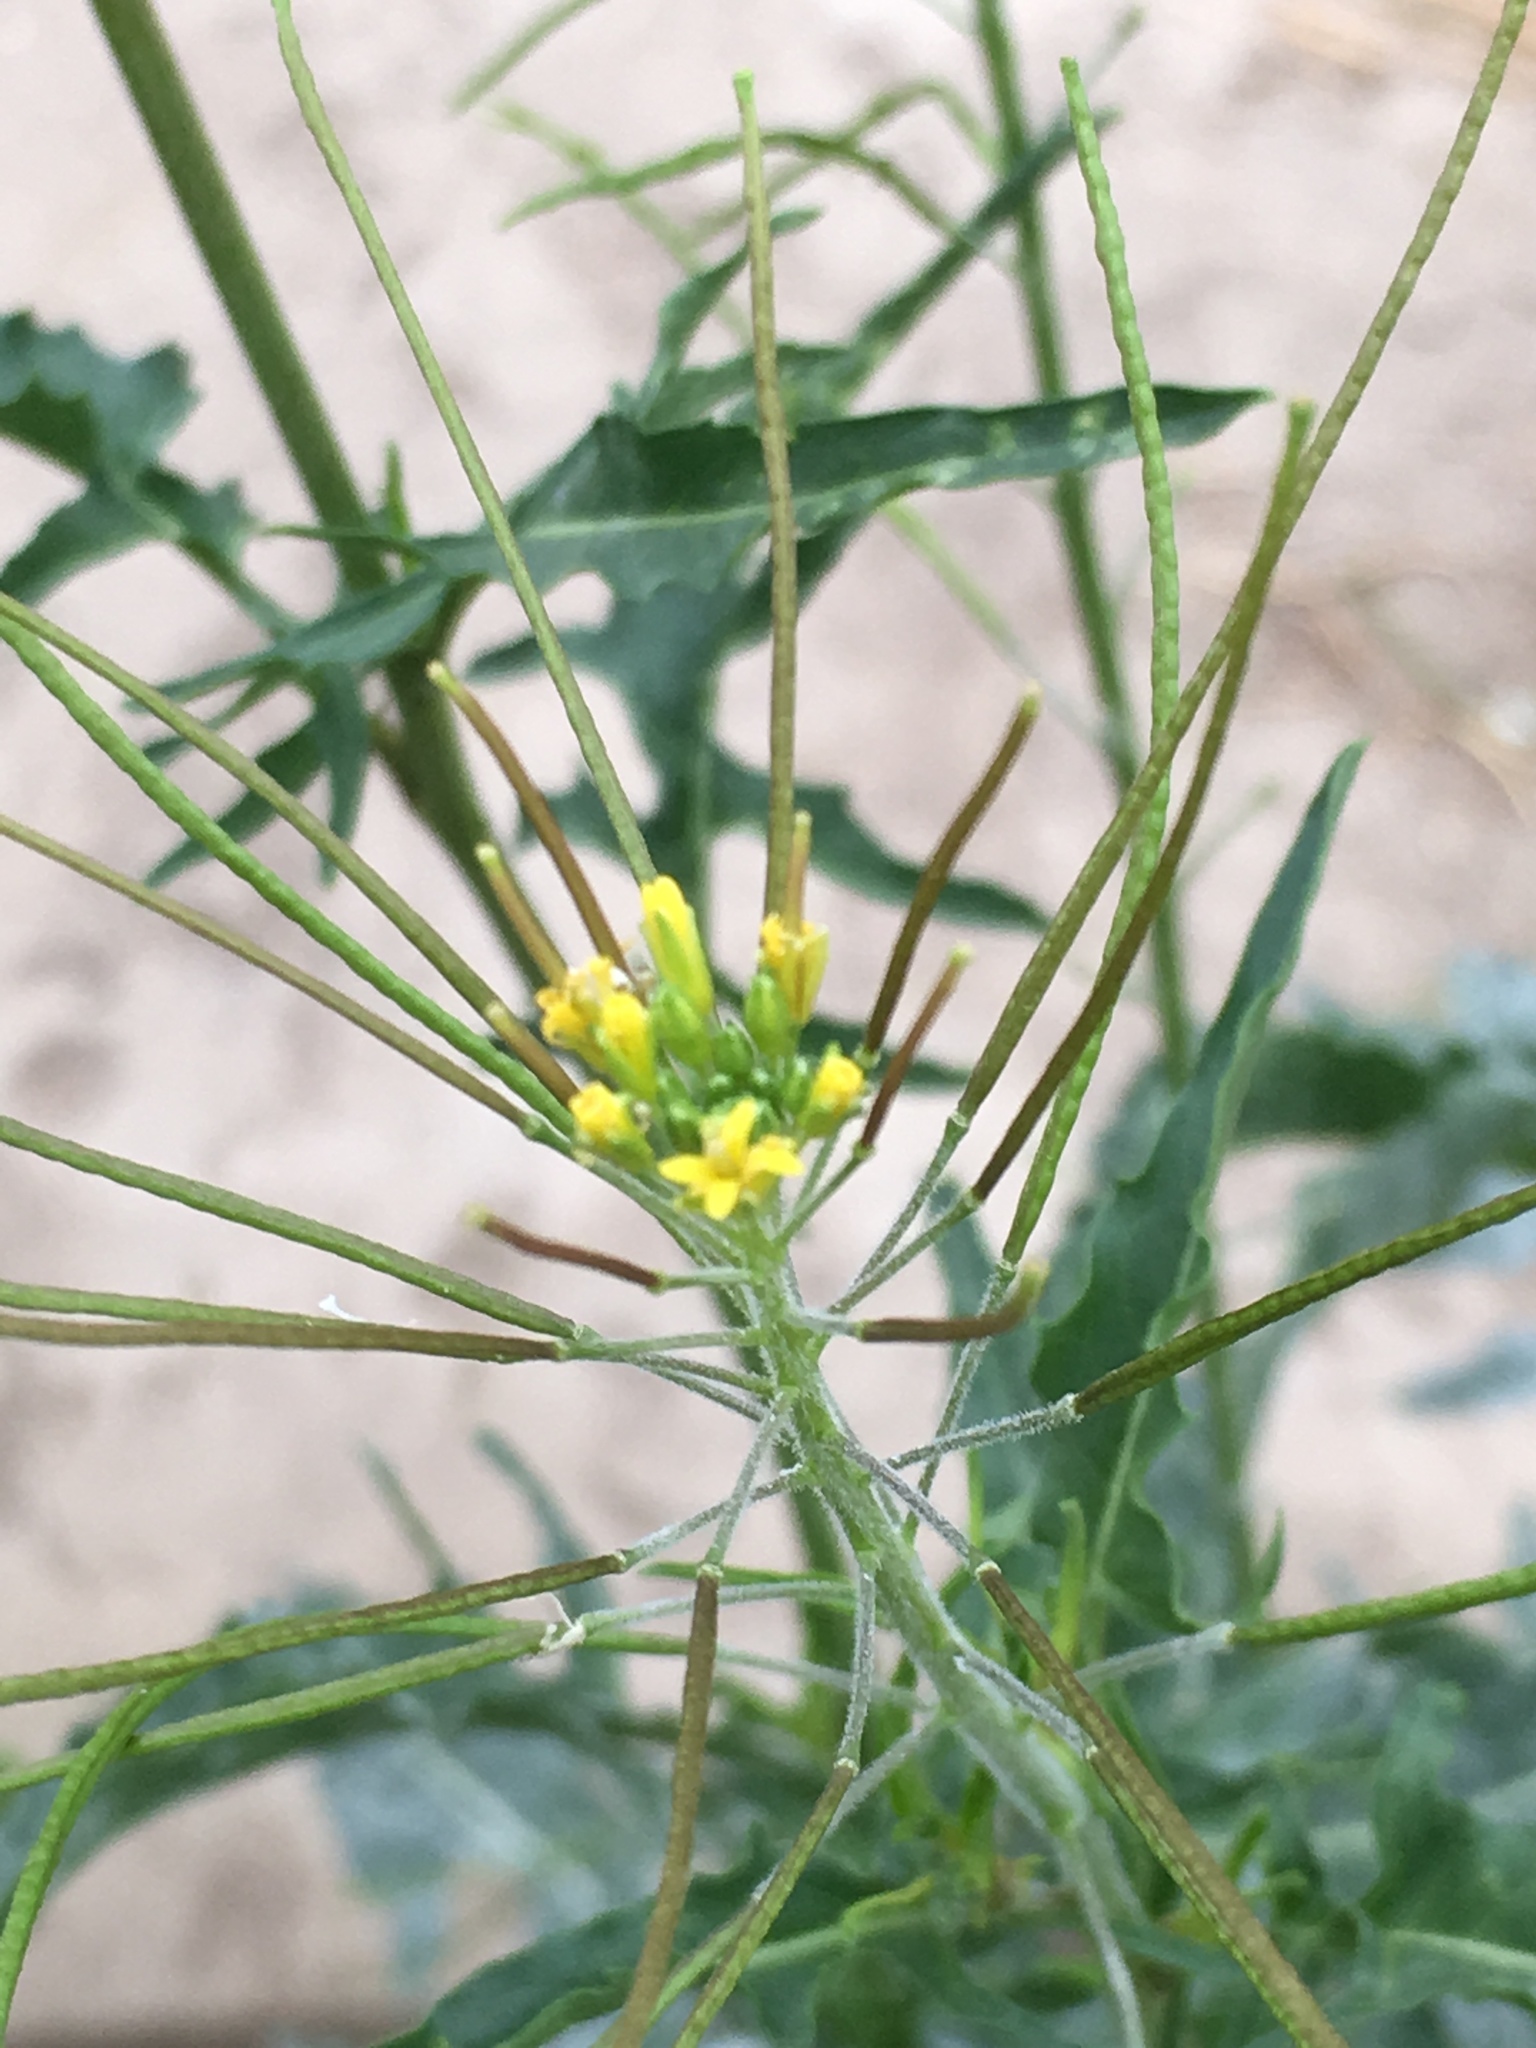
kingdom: Plantae
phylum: Tracheophyta
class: Magnoliopsida
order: Brassicales
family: Brassicaceae
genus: Sisymbrium
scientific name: Sisymbrium irio
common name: London rocket
